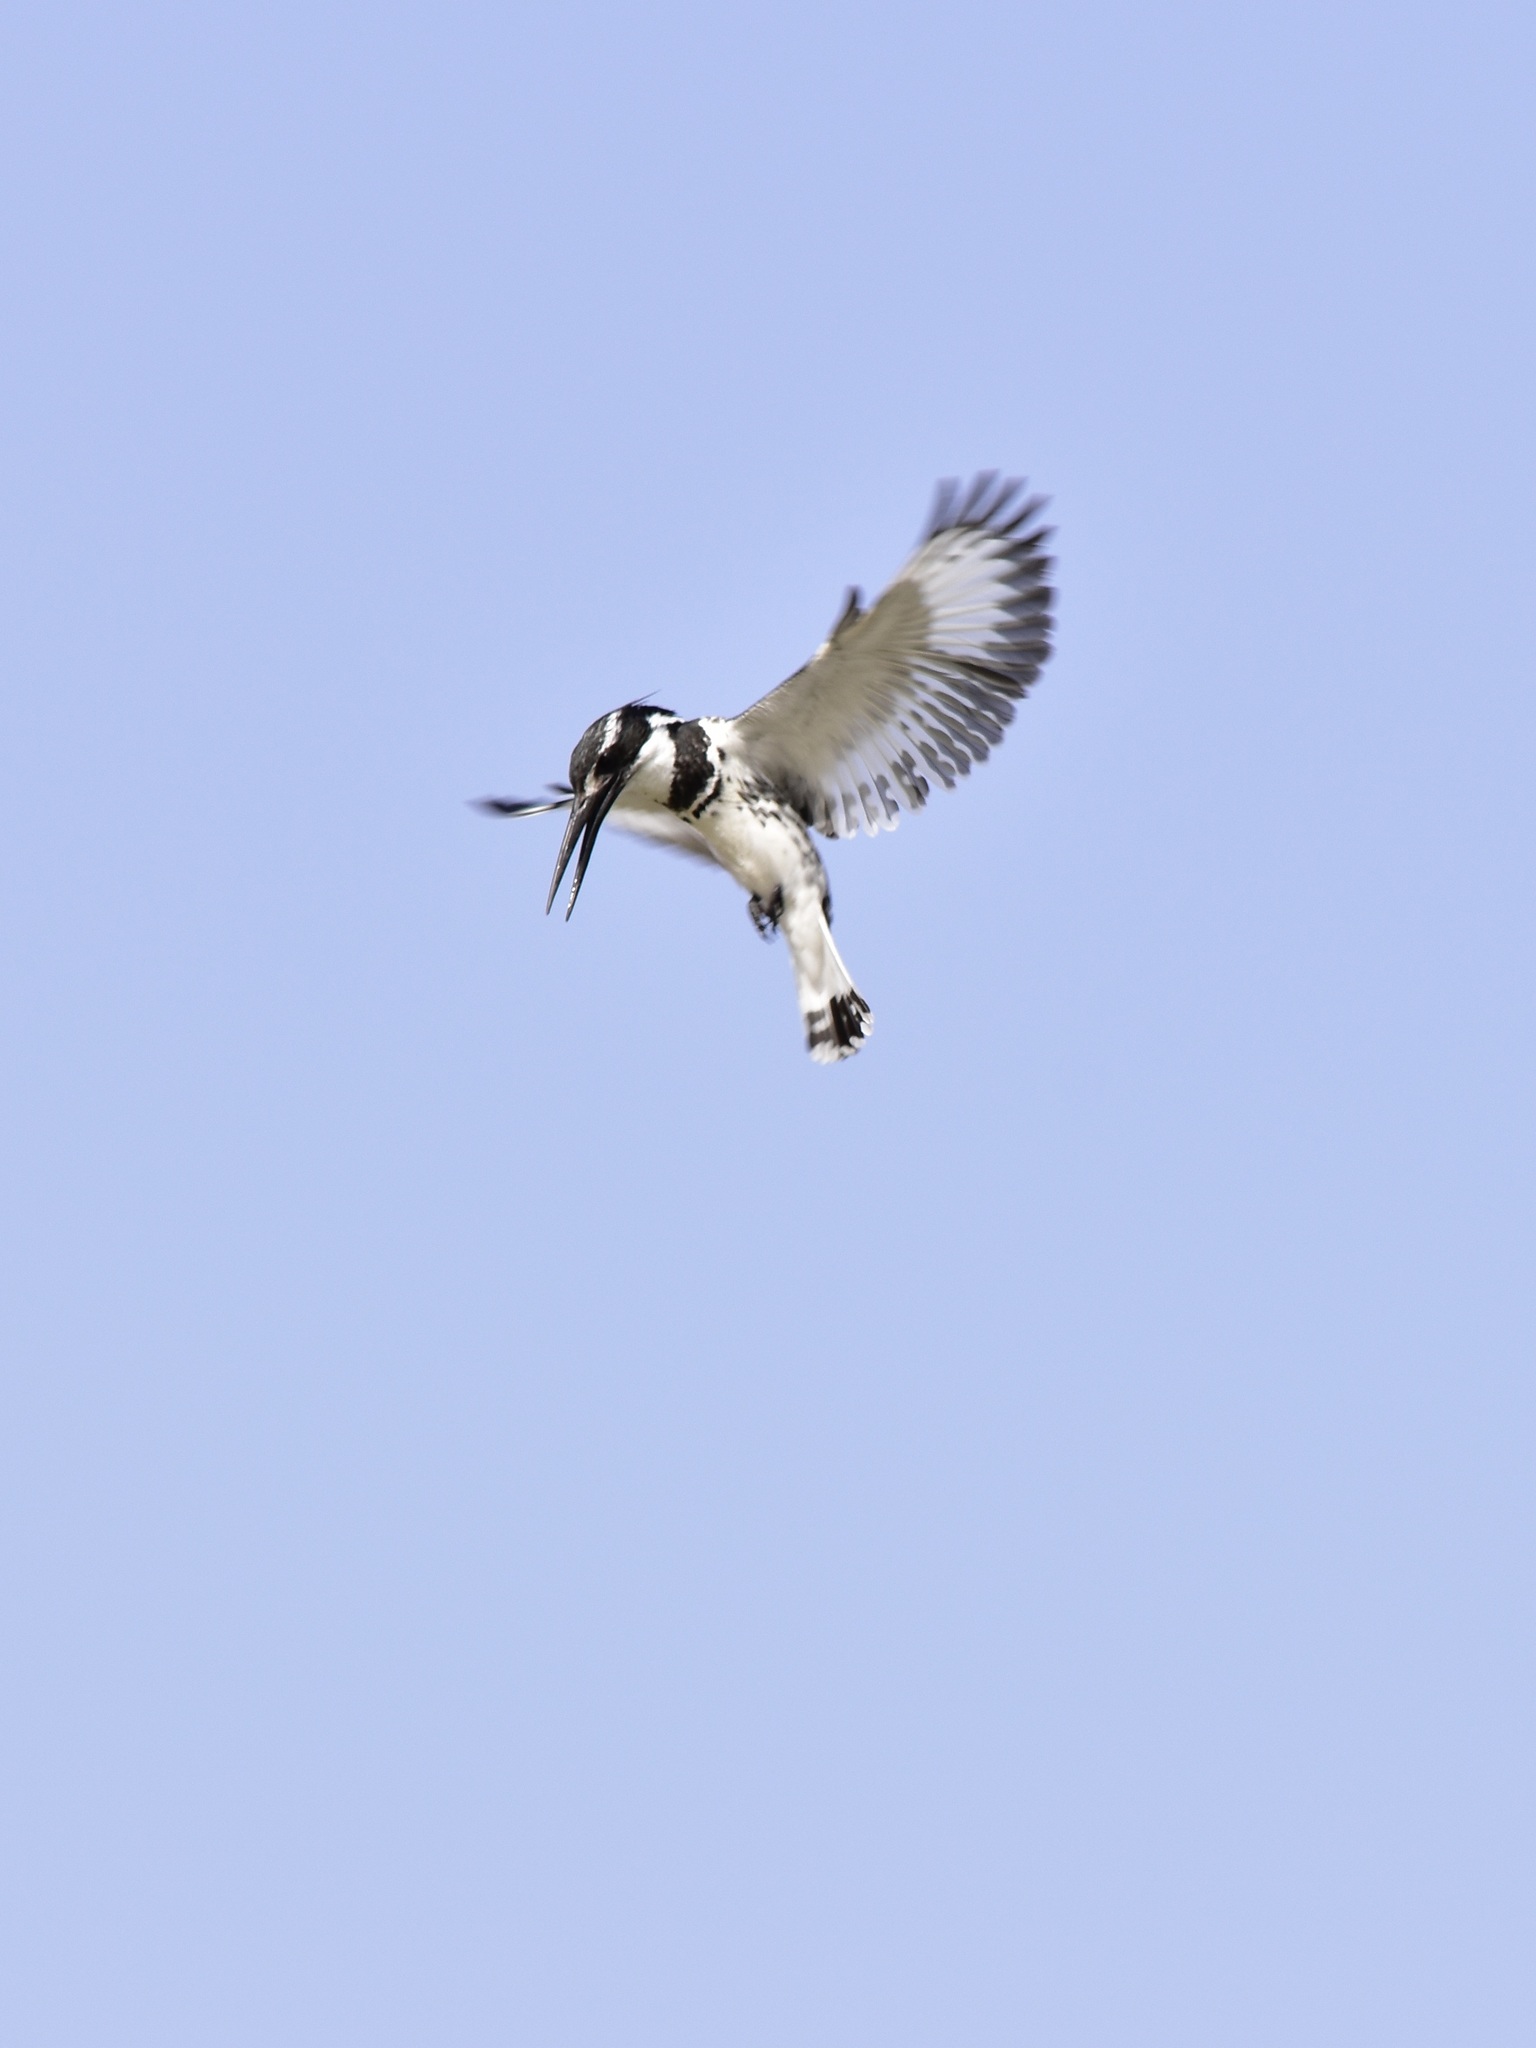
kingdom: Animalia
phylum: Chordata
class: Aves
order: Coraciiformes
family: Alcedinidae
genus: Ceryle
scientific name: Ceryle rudis
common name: Pied kingfisher
